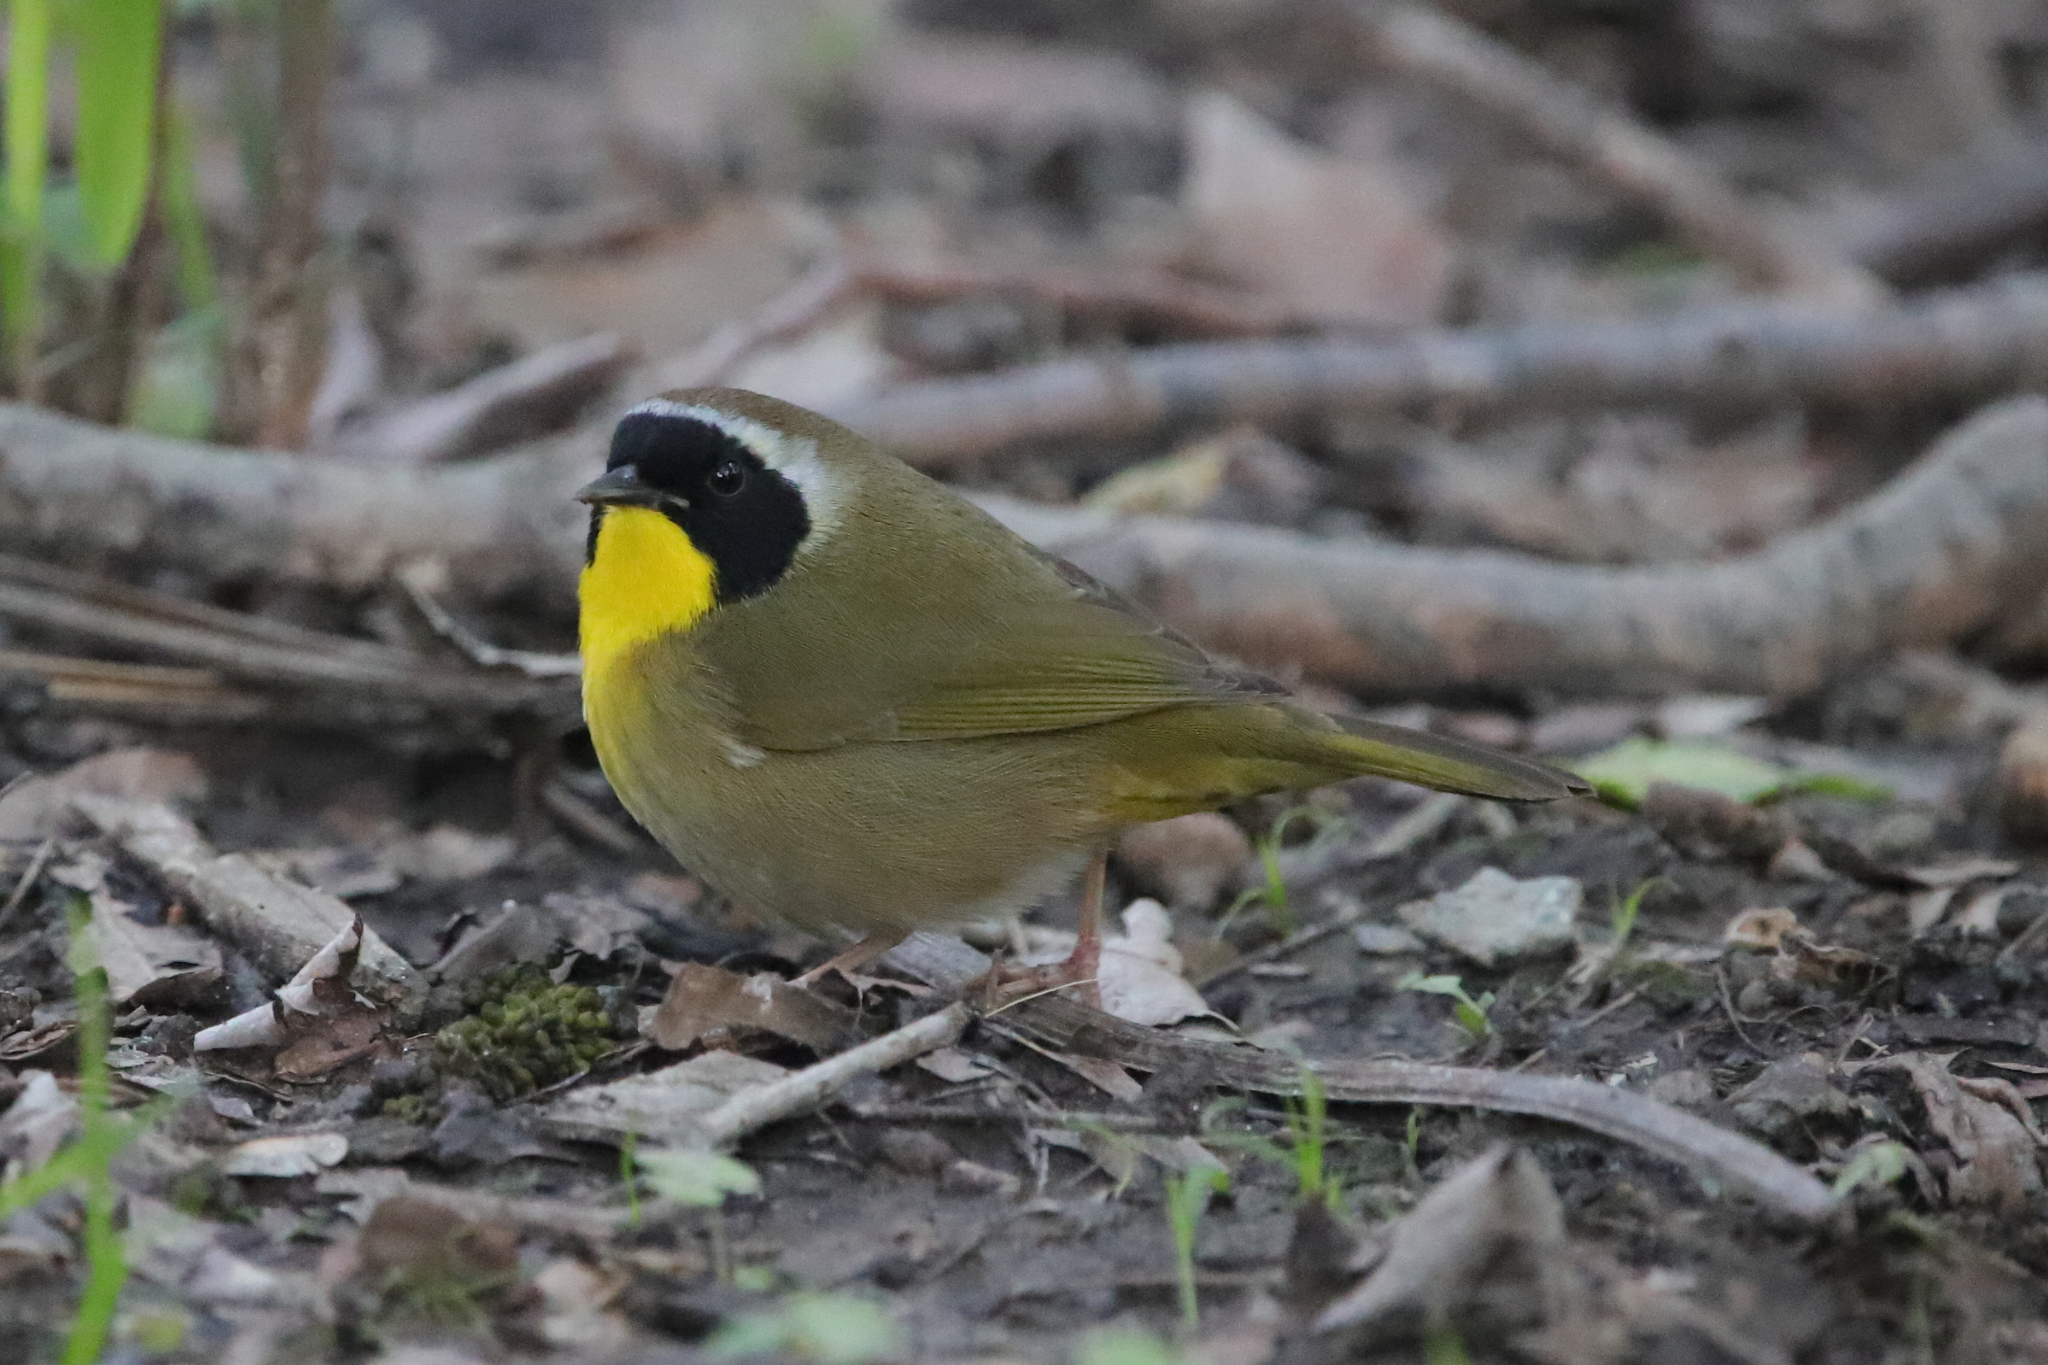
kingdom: Animalia
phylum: Chordata
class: Aves
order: Passeriformes
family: Parulidae
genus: Geothlypis
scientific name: Geothlypis trichas
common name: Common yellowthroat
